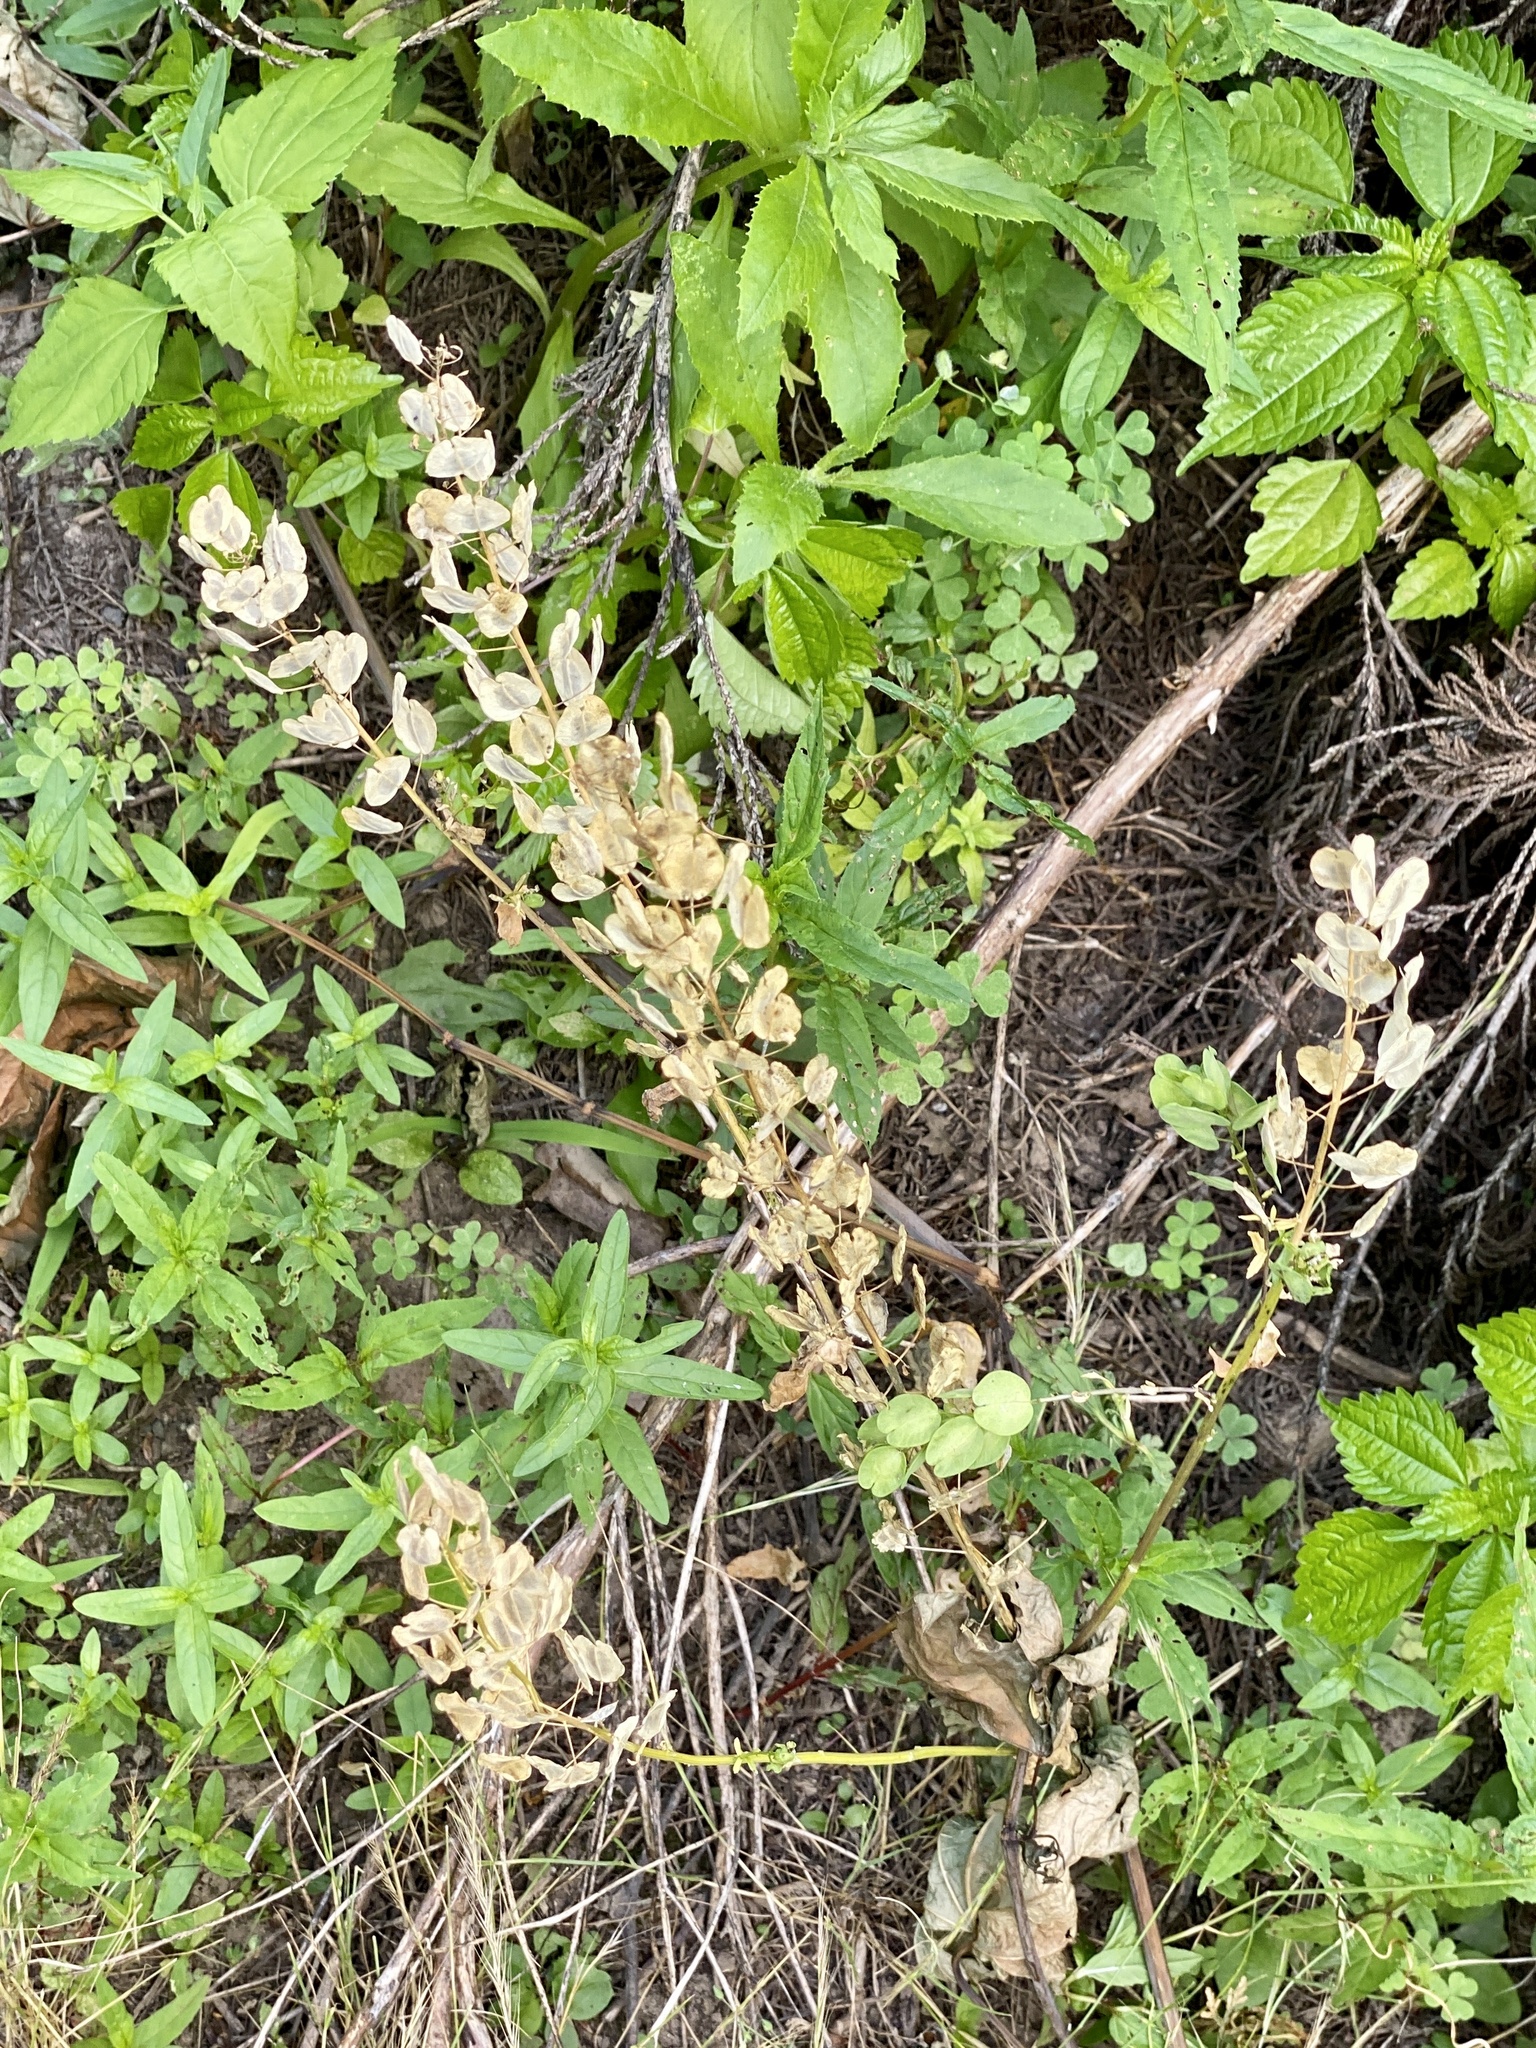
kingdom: Plantae
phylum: Tracheophyta
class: Magnoliopsida
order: Brassicales
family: Brassicaceae
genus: Thlaspi
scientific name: Thlaspi arvense
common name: Field pennycress
